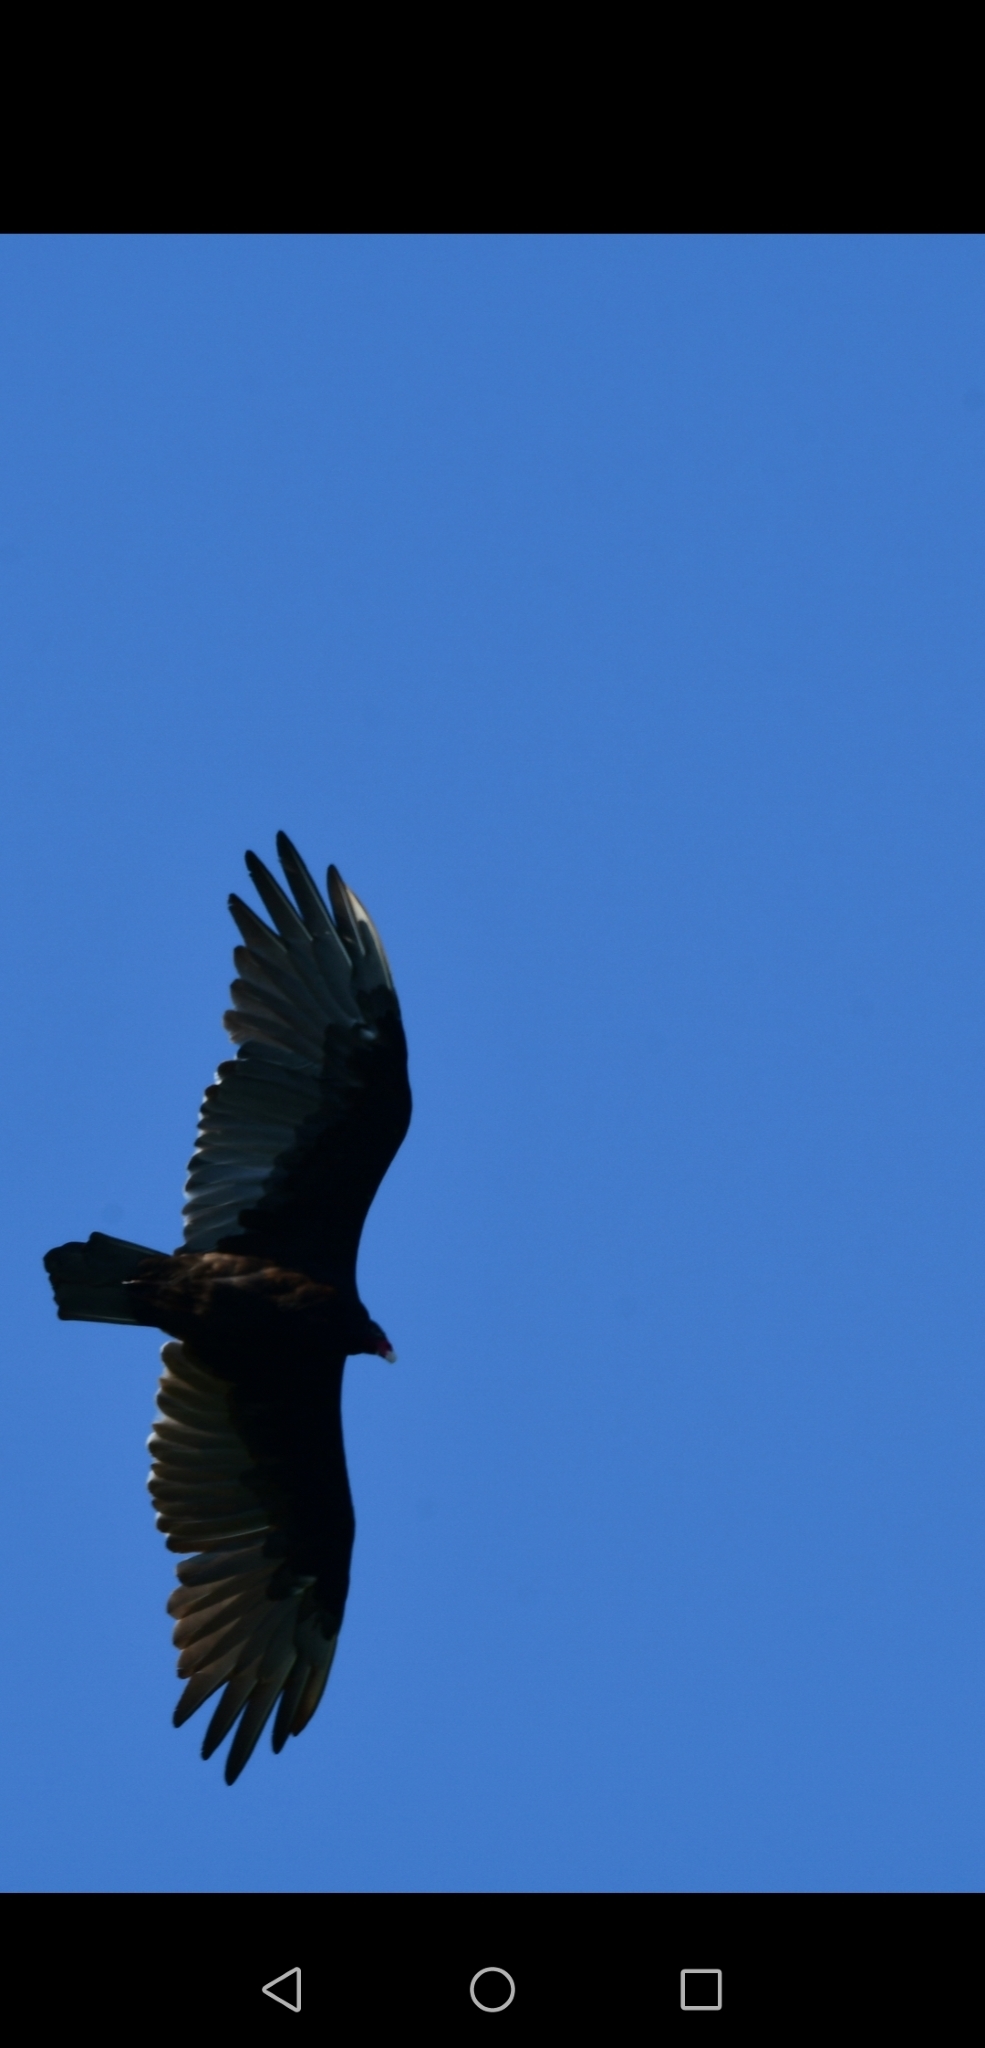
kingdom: Animalia
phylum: Chordata
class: Aves
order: Accipitriformes
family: Cathartidae
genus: Cathartes
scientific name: Cathartes aura
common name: Turkey vulture
